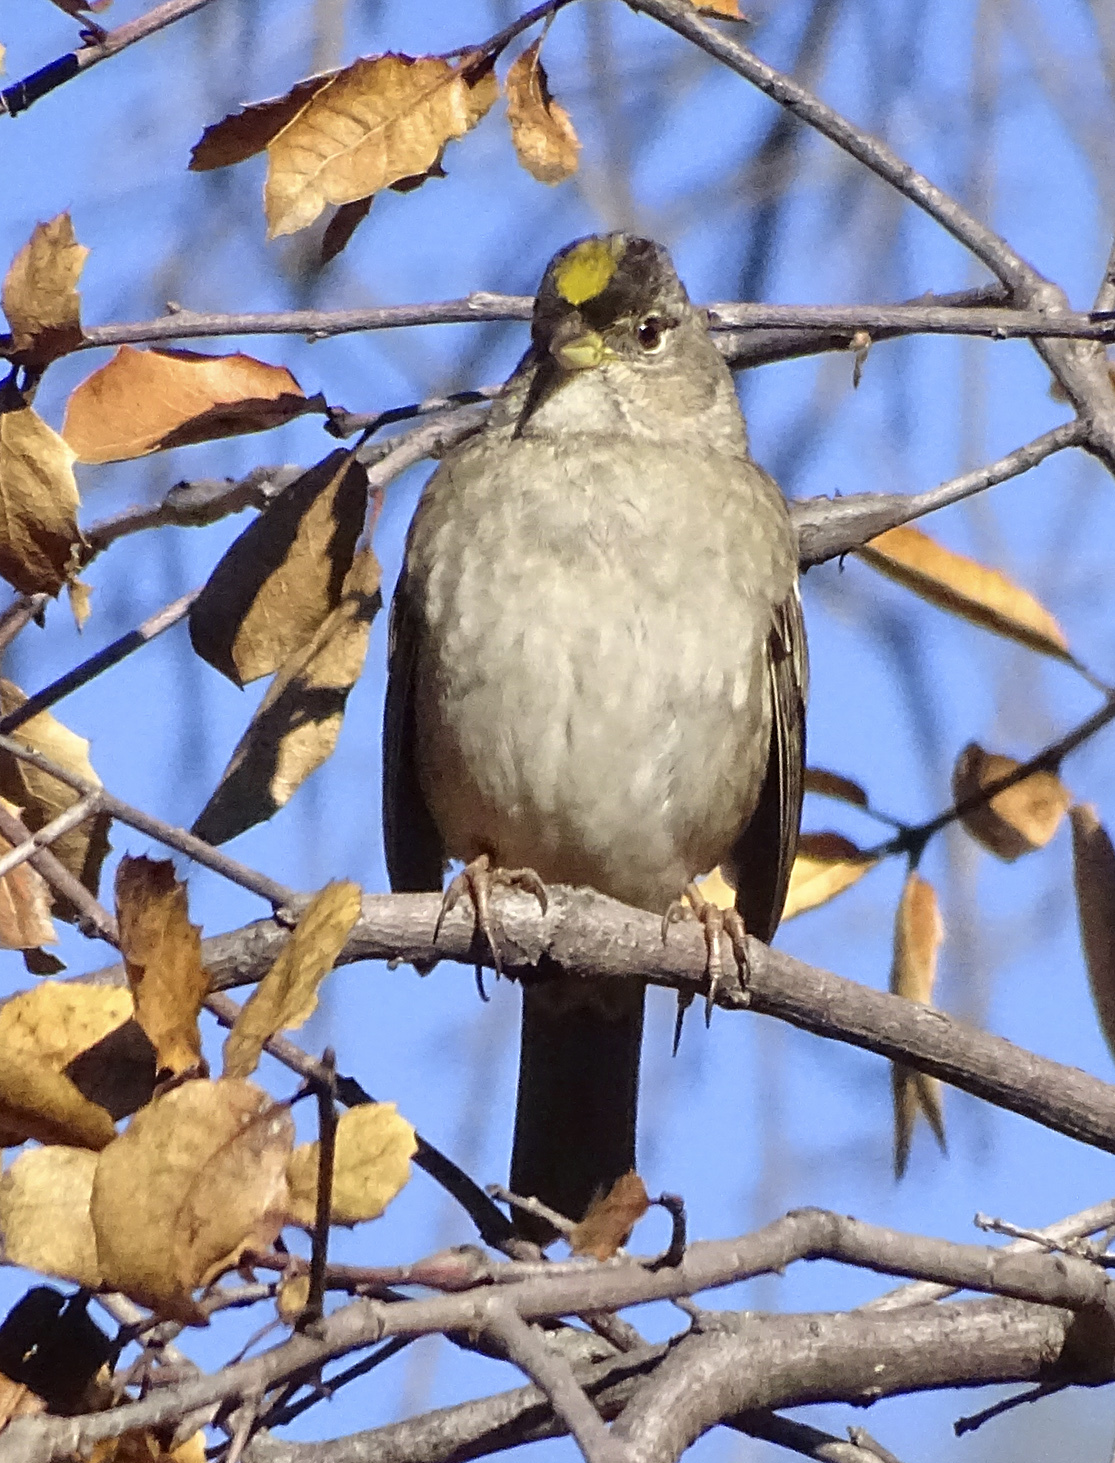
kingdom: Animalia
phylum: Chordata
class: Aves
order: Passeriformes
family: Passerellidae
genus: Zonotrichia
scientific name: Zonotrichia atricapilla
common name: Golden-crowned sparrow
